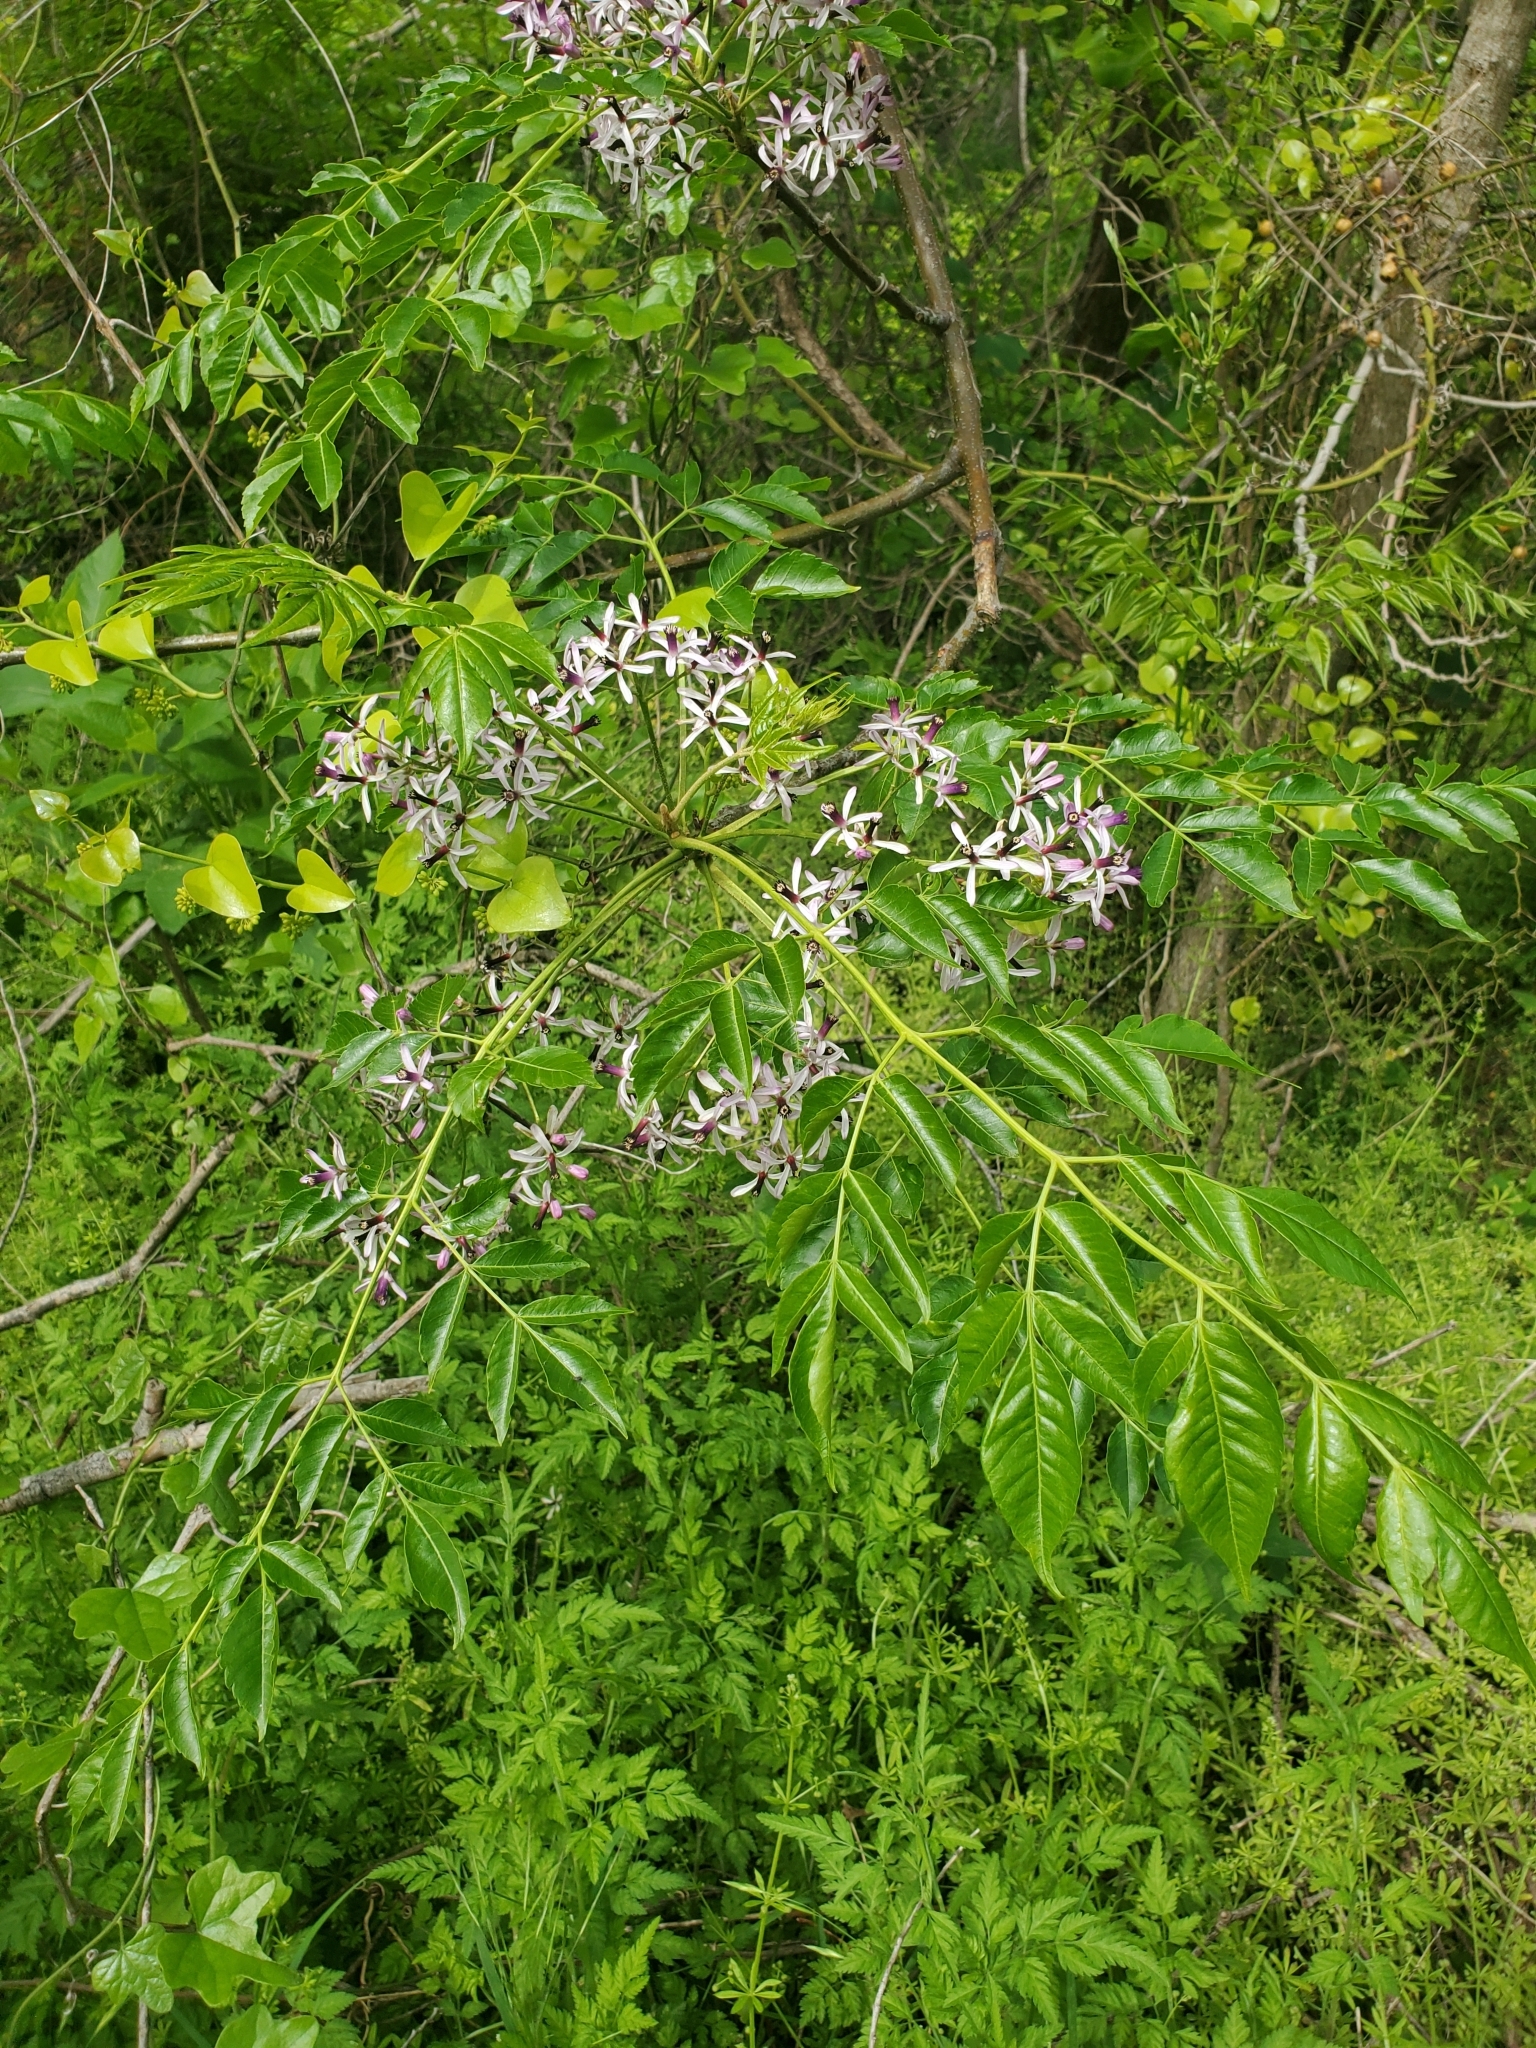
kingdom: Plantae
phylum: Tracheophyta
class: Magnoliopsida
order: Sapindales
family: Meliaceae
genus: Melia
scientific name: Melia azedarach
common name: Chinaberrytree
